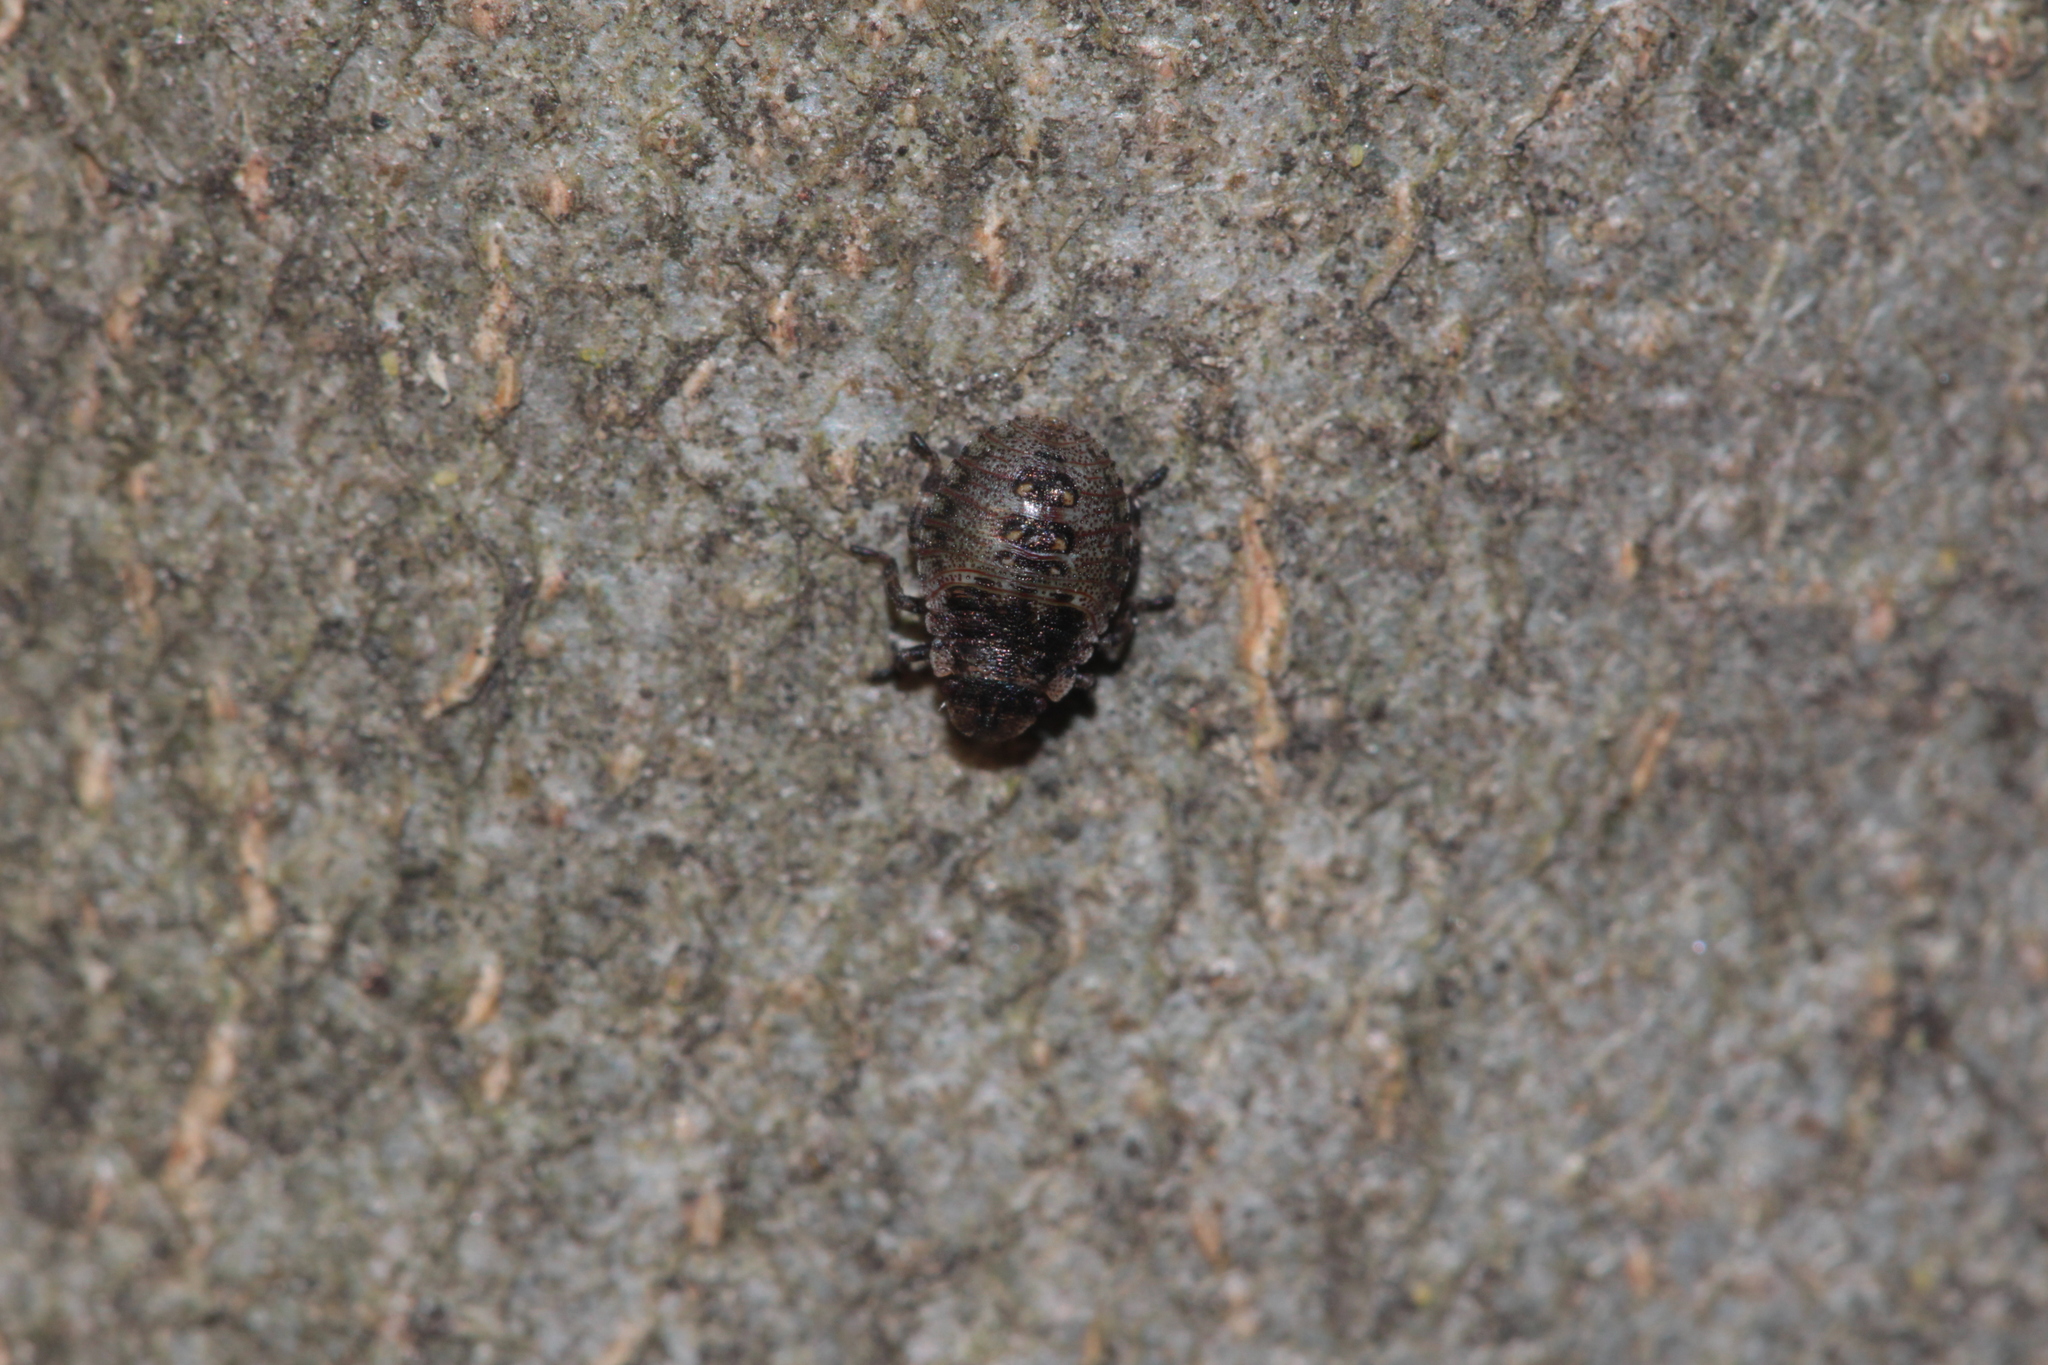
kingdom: Animalia
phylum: Arthropoda
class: Insecta
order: Hemiptera
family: Pentatomidae
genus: Pentatoma
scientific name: Pentatoma rufipes
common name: Forest bug
